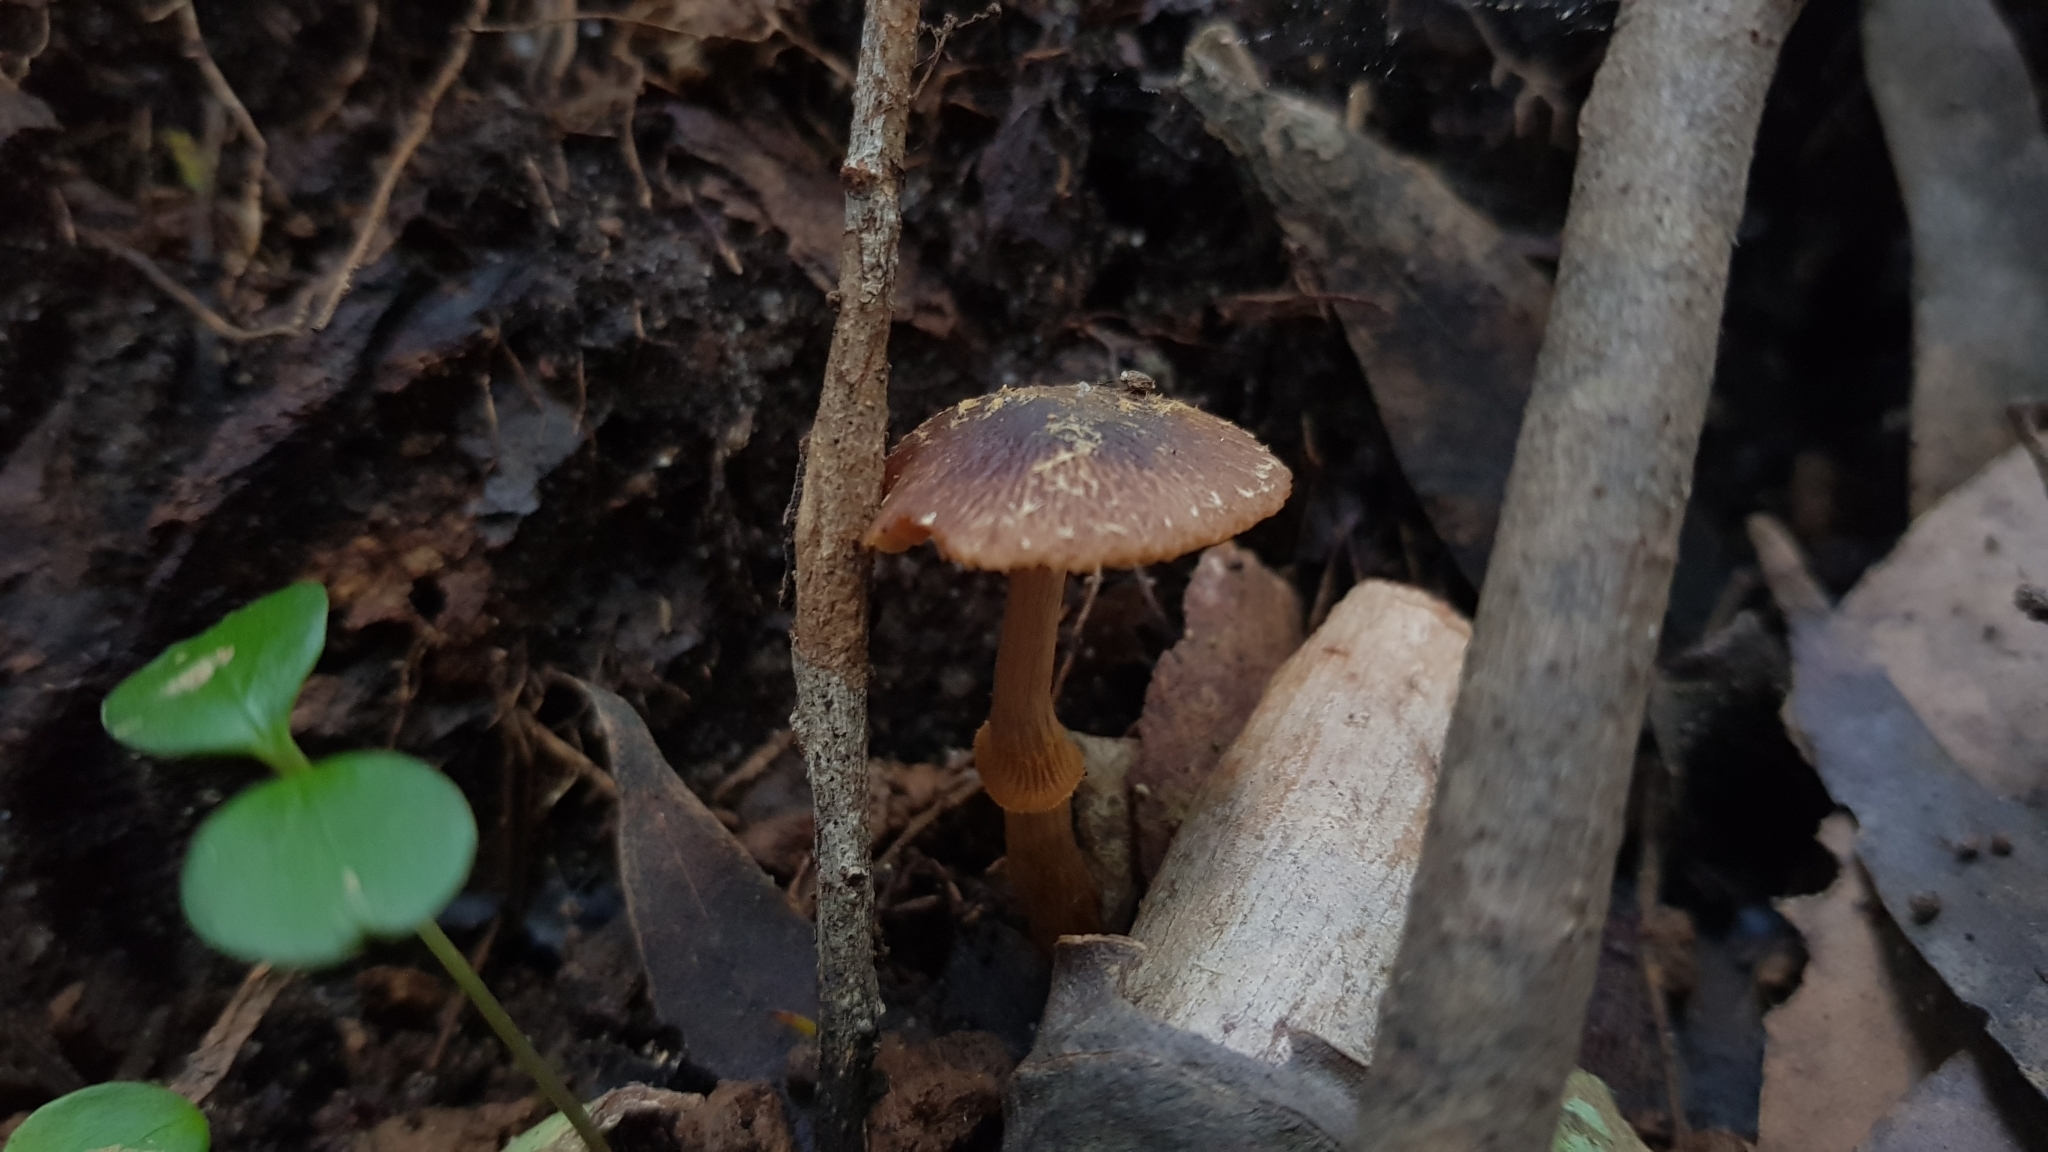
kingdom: Fungi
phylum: Basidiomycota
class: Agaricomycetes
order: Agaricales
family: Bolbitiaceae
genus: Descolea
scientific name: Descolea recedens
